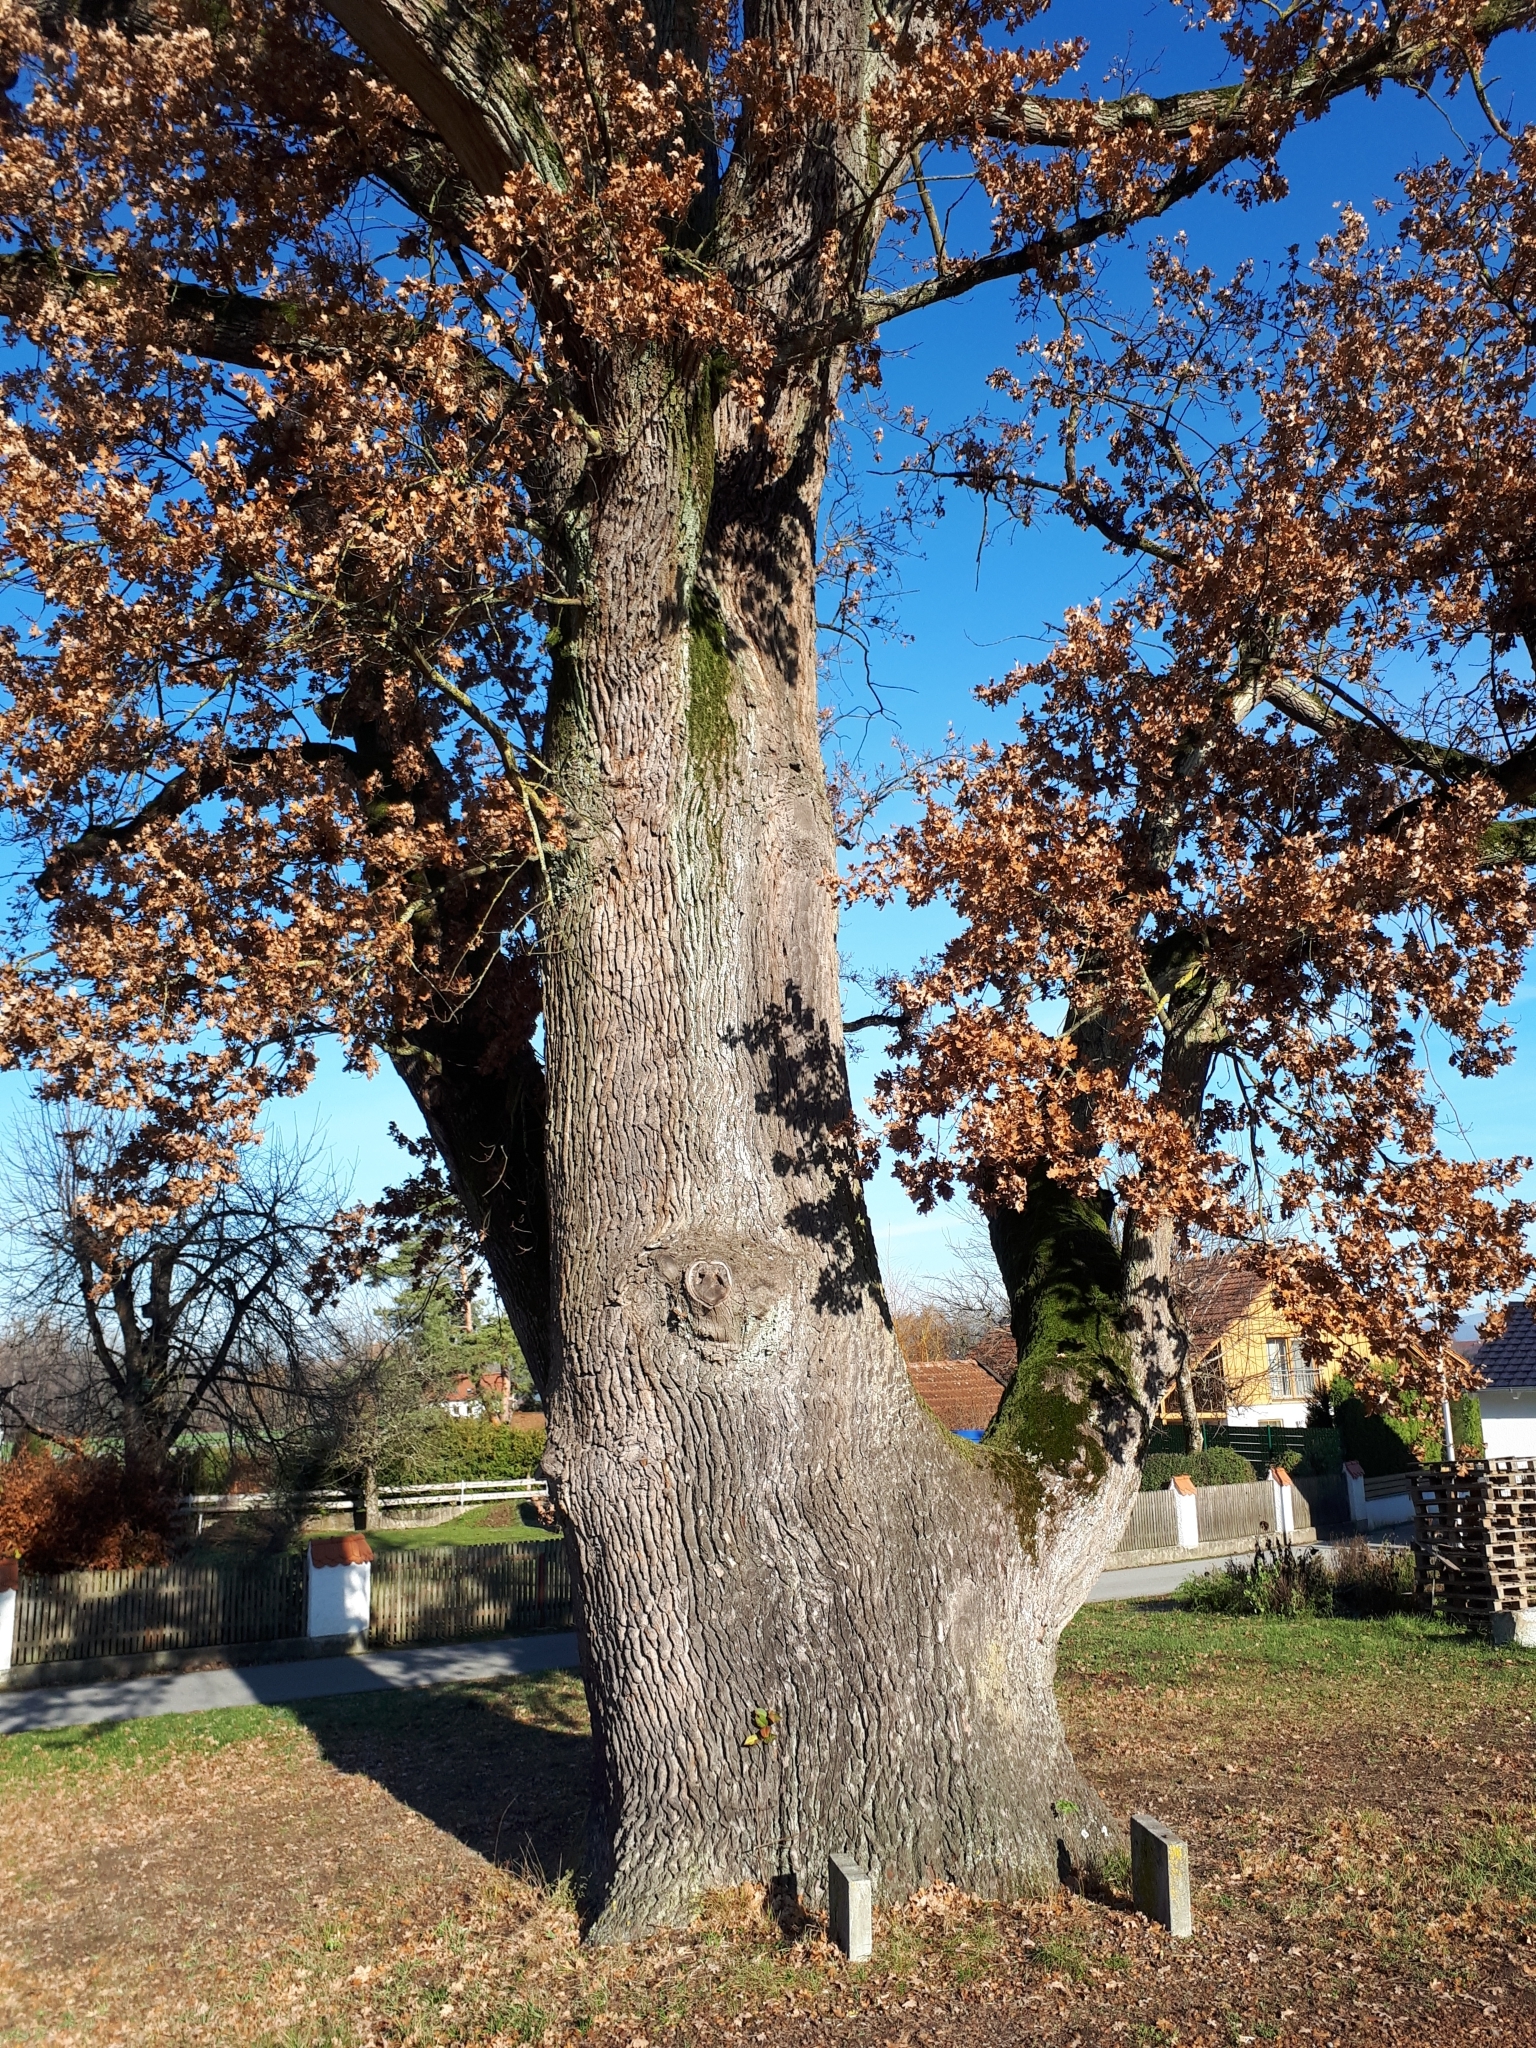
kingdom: Plantae
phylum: Tracheophyta
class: Magnoliopsida
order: Fagales
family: Fagaceae
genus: Quercus
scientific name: Quercus robur
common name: Pedunculate oak
